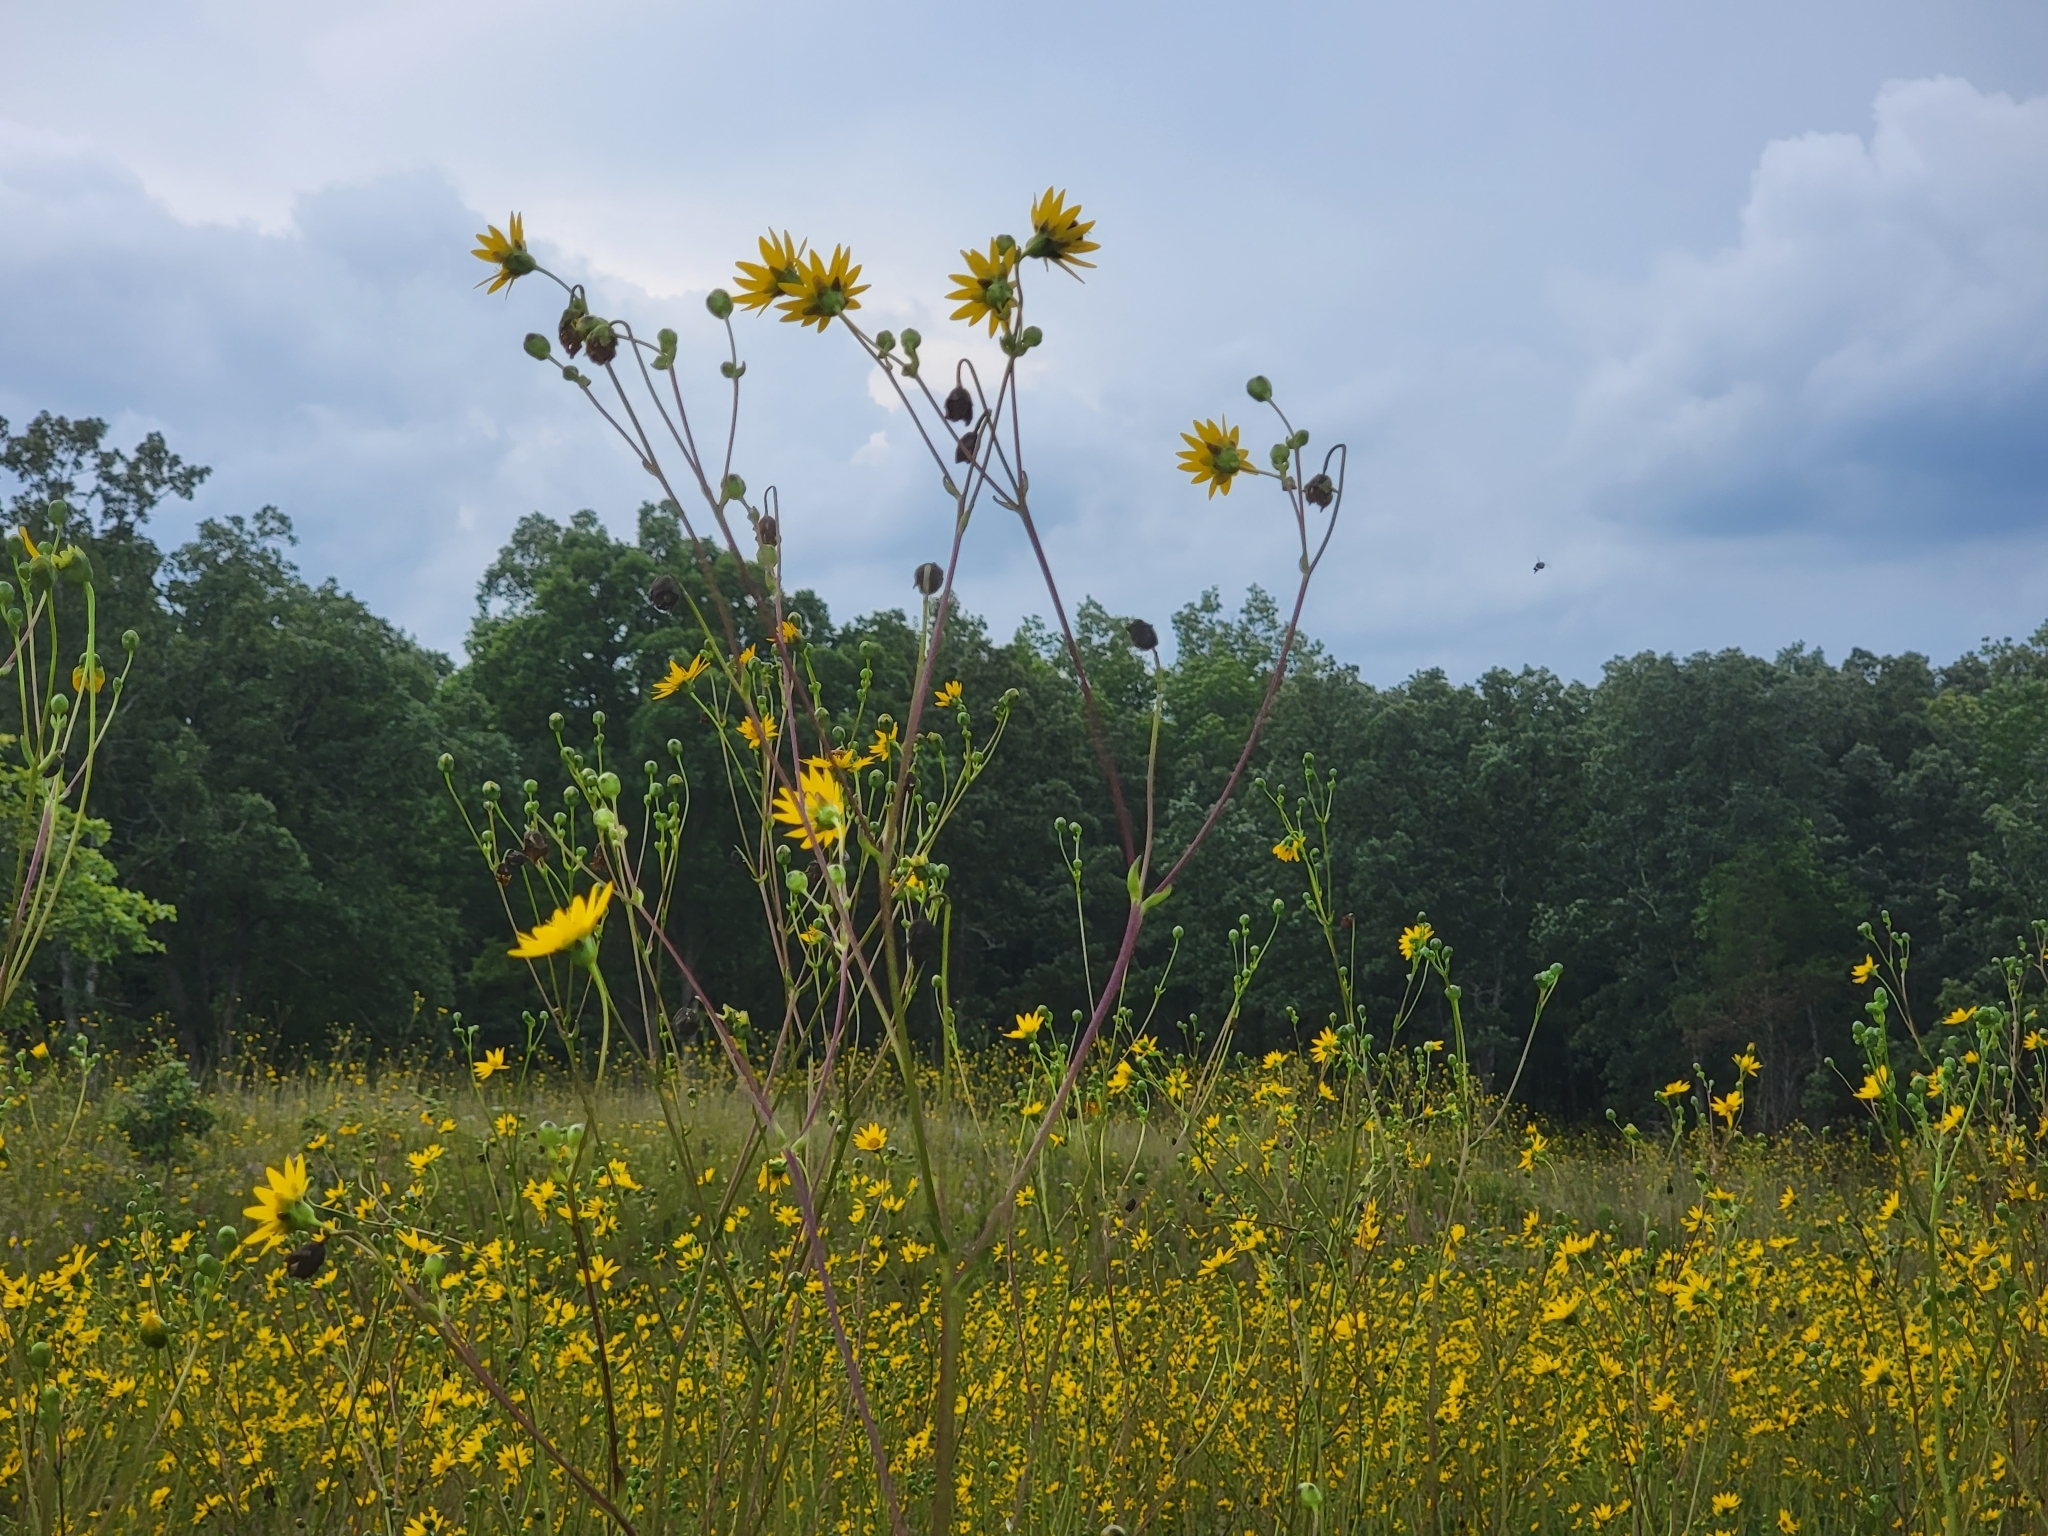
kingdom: Plantae
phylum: Tracheophyta
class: Magnoliopsida
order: Asterales
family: Asteraceae
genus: Silphium
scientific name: Silphium terebinthinaceum
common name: Basal-leaf rosinweed
